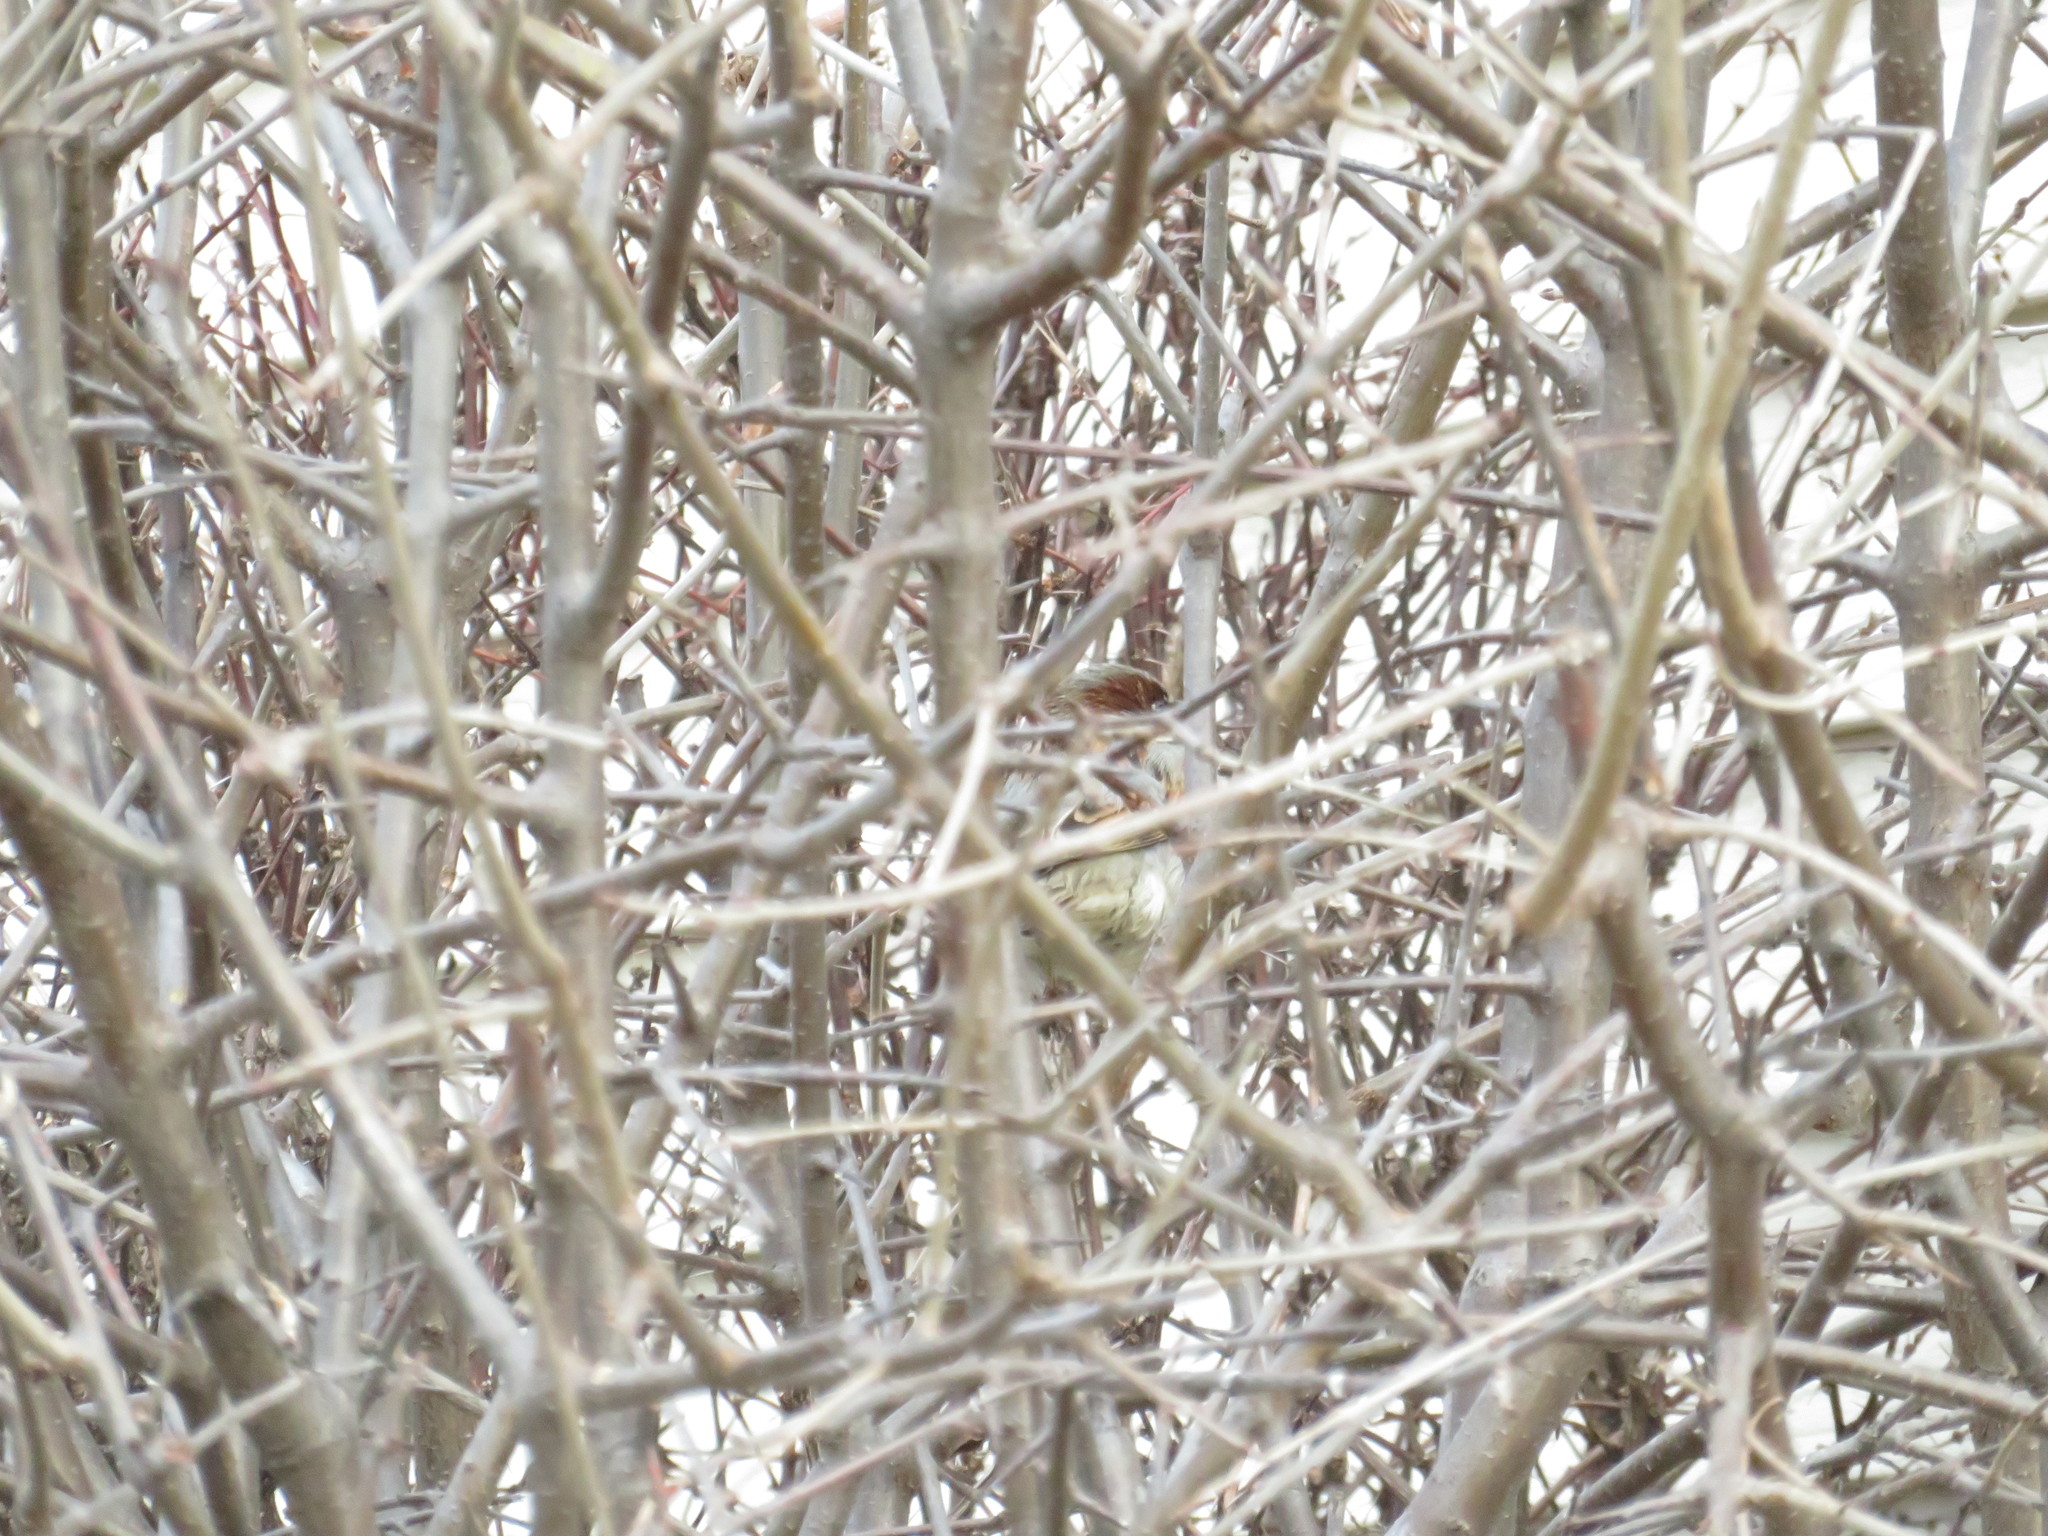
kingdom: Animalia
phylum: Chordata
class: Aves
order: Passeriformes
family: Passeridae
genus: Passer
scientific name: Passer domesticus
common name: House sparrow
